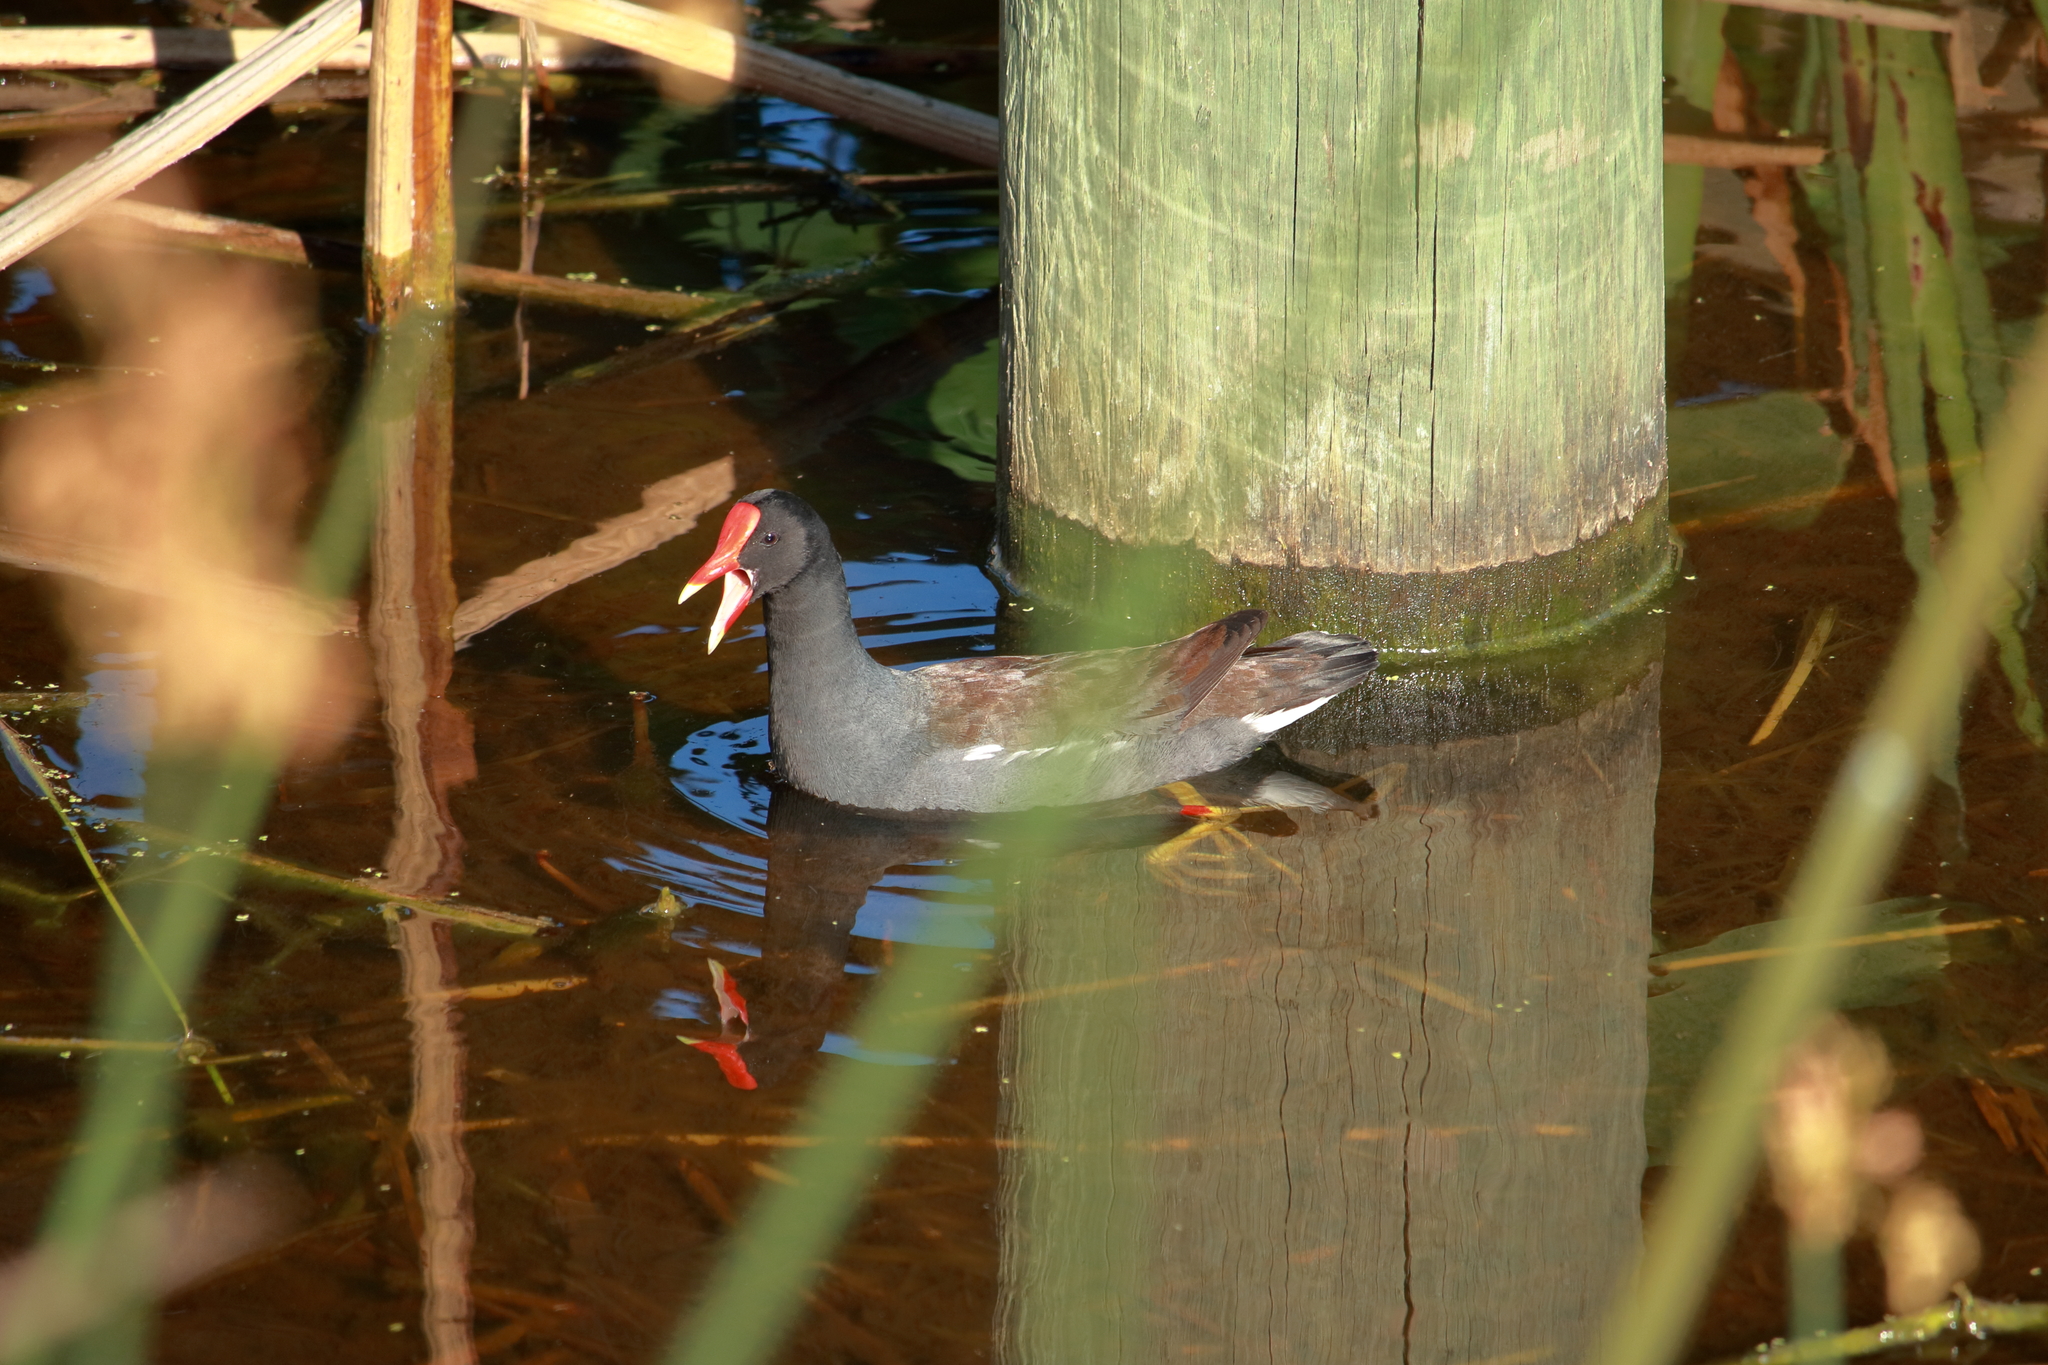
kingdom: Animalia
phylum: Chordata
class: Aves
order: Gruiformes
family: Rallidae
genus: Gallinula
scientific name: Gallinula chloropus
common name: Common moorhen
